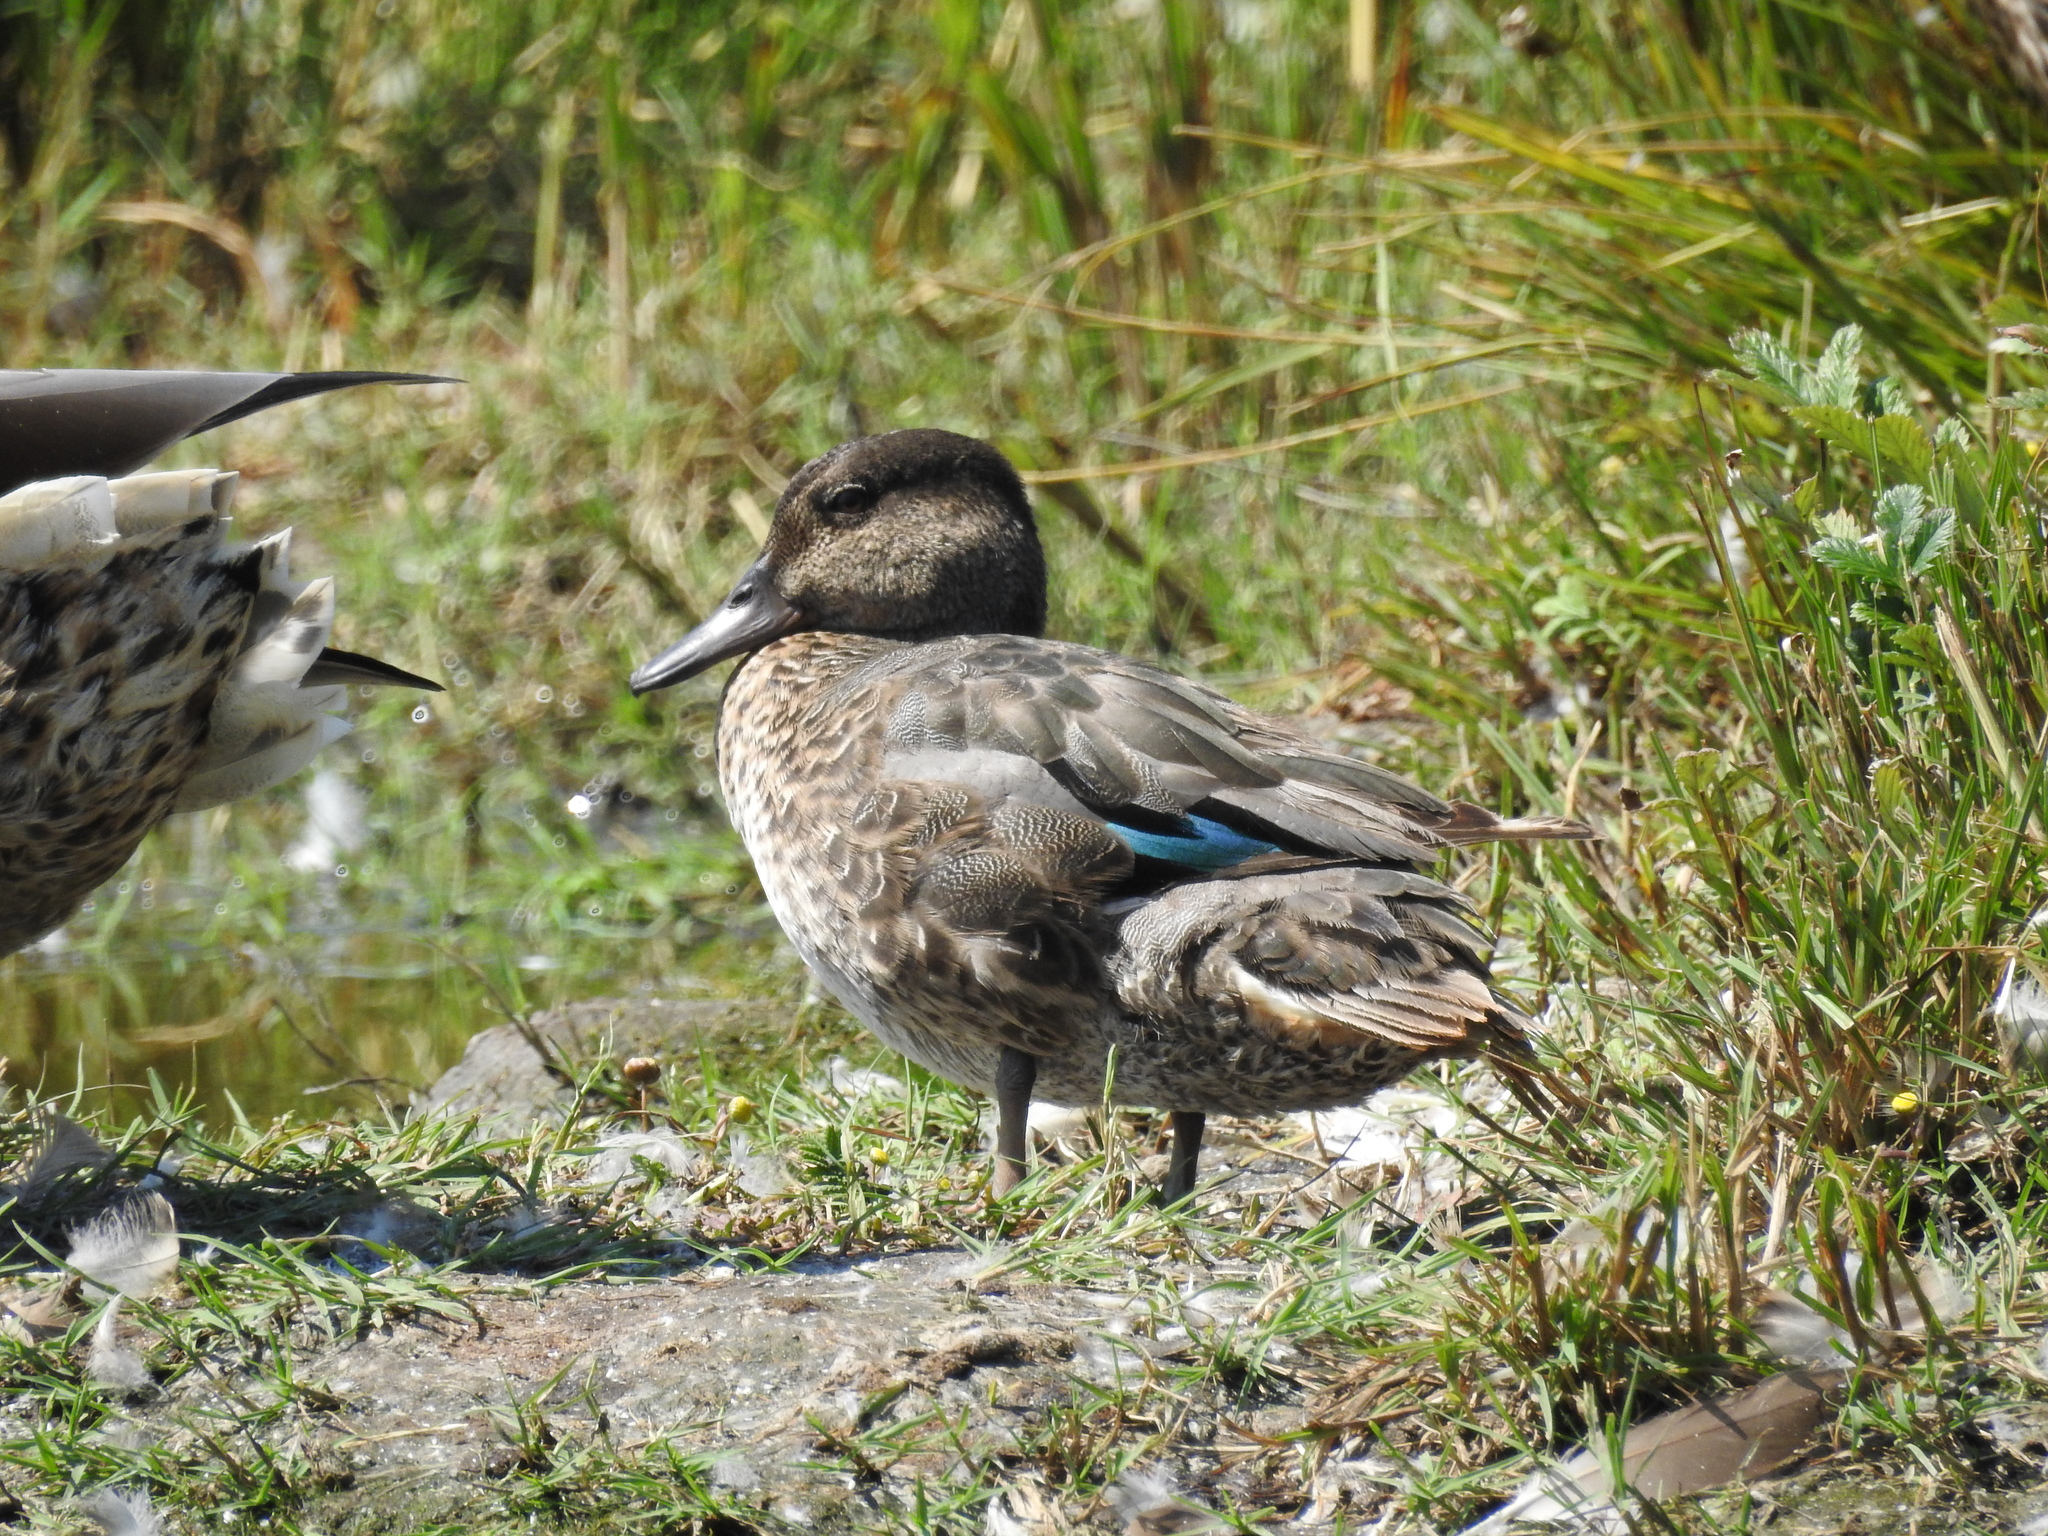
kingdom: Animalia
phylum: Chordata
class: Aves
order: Anseriformes
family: Anatidae
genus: Anas
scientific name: Anas crecca
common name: Eurasian teal
